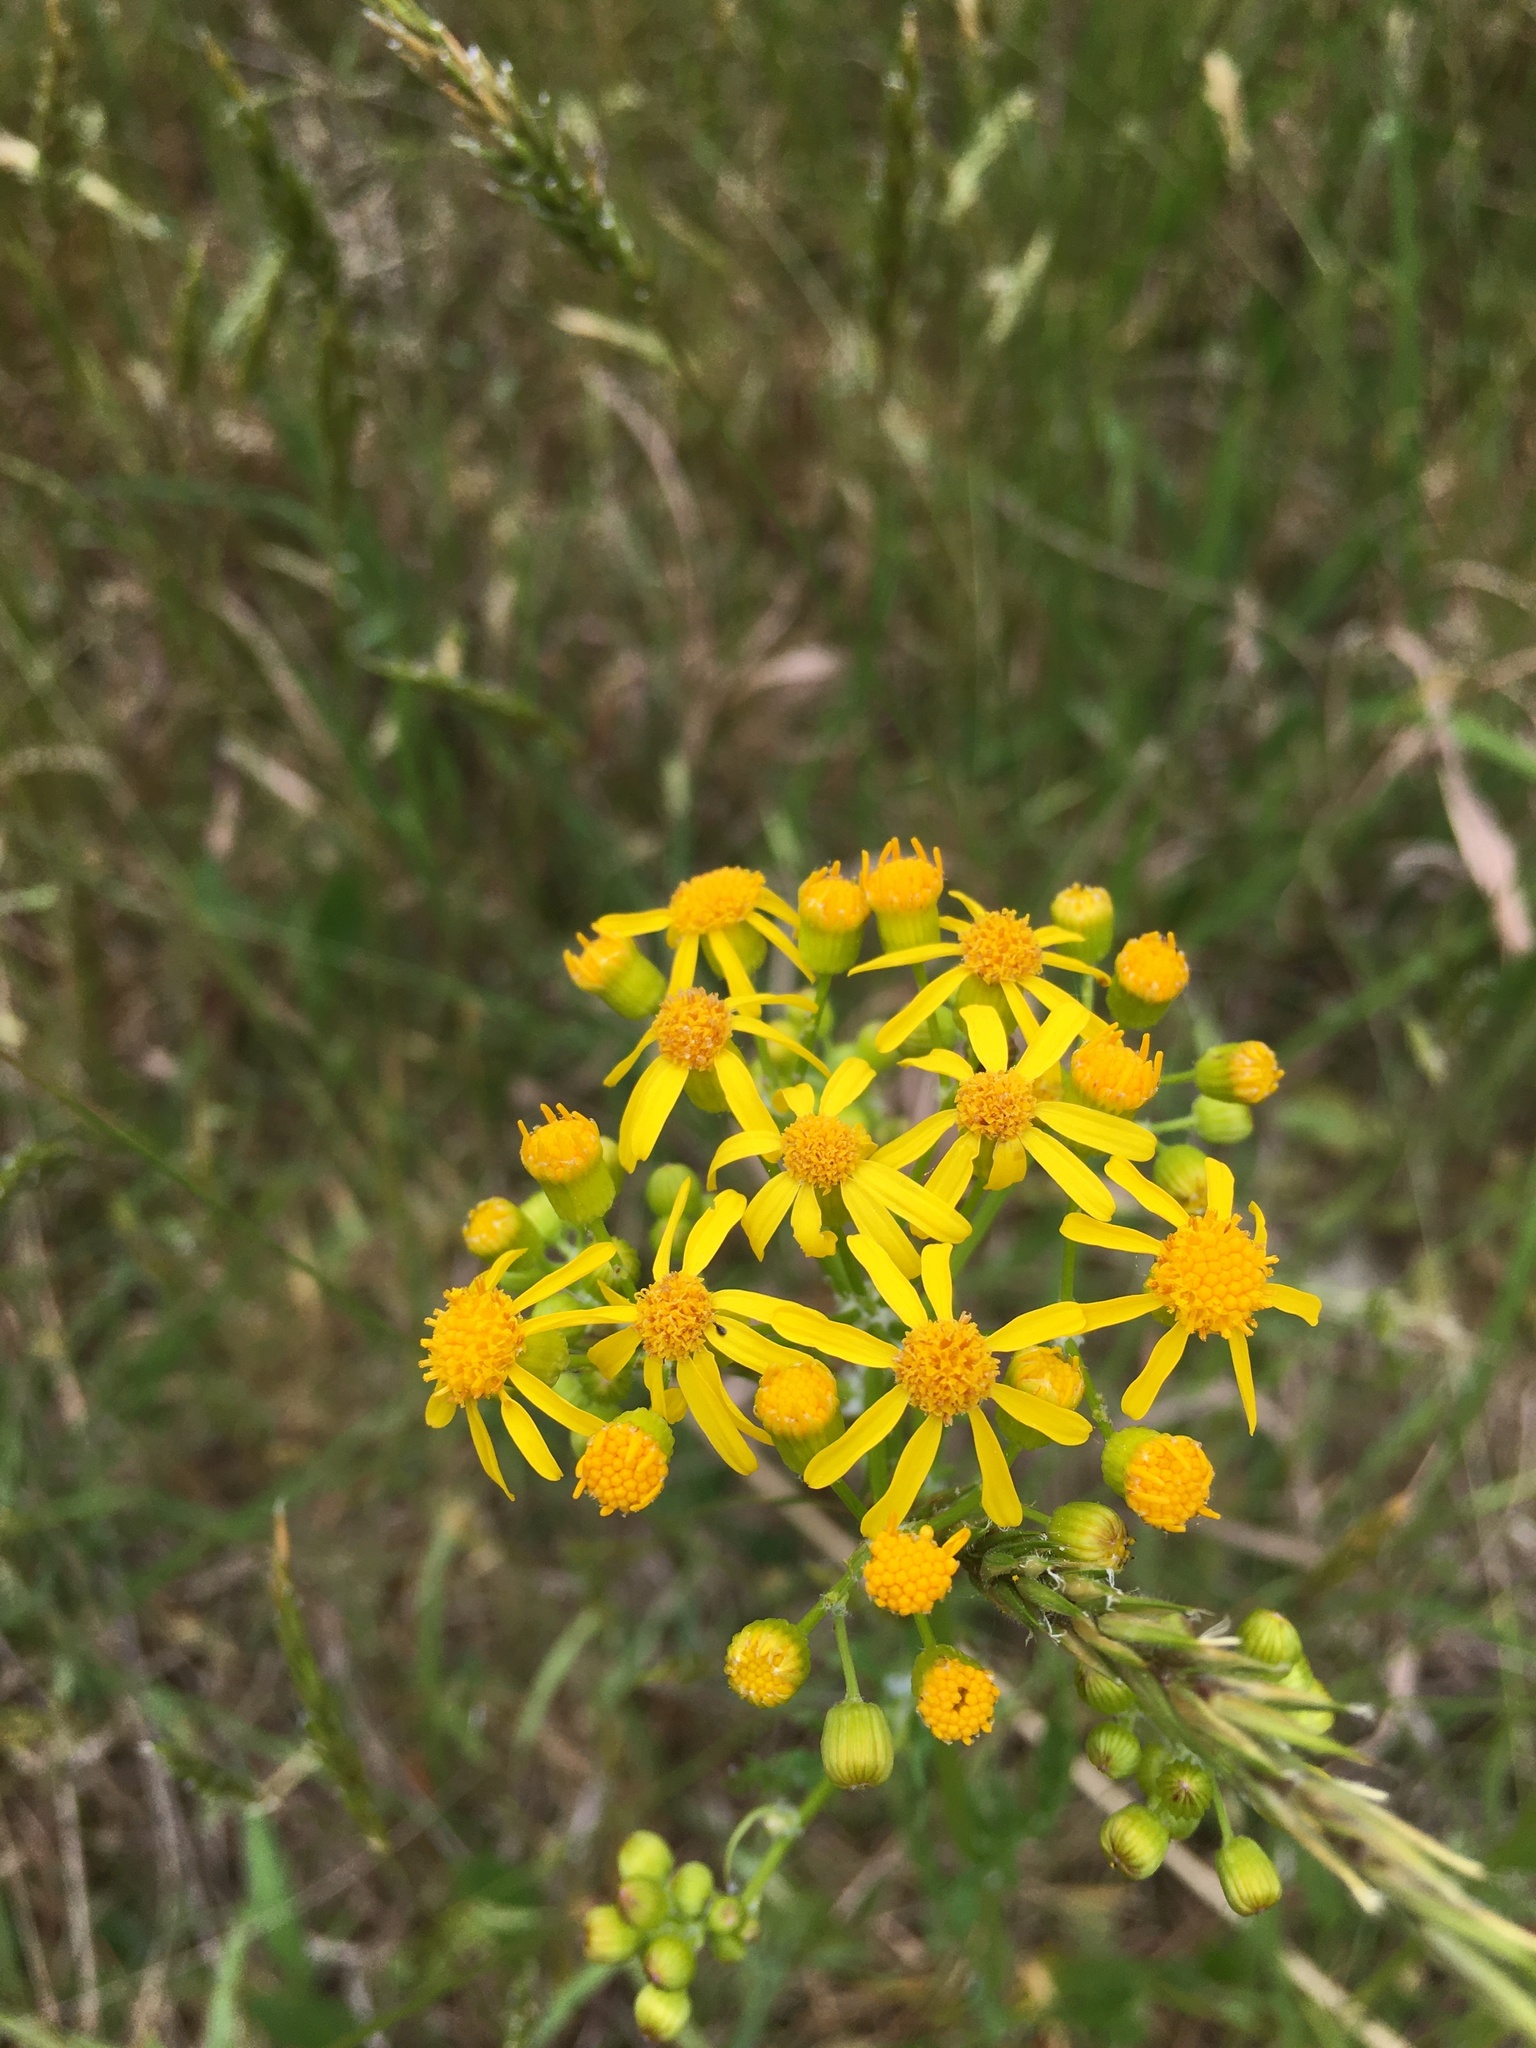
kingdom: Plantae
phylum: Tracheophyta
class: Magnoliopsida
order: Asterales
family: Asteraceae
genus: Packera
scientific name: Packera anonyma
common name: Small ragwort
